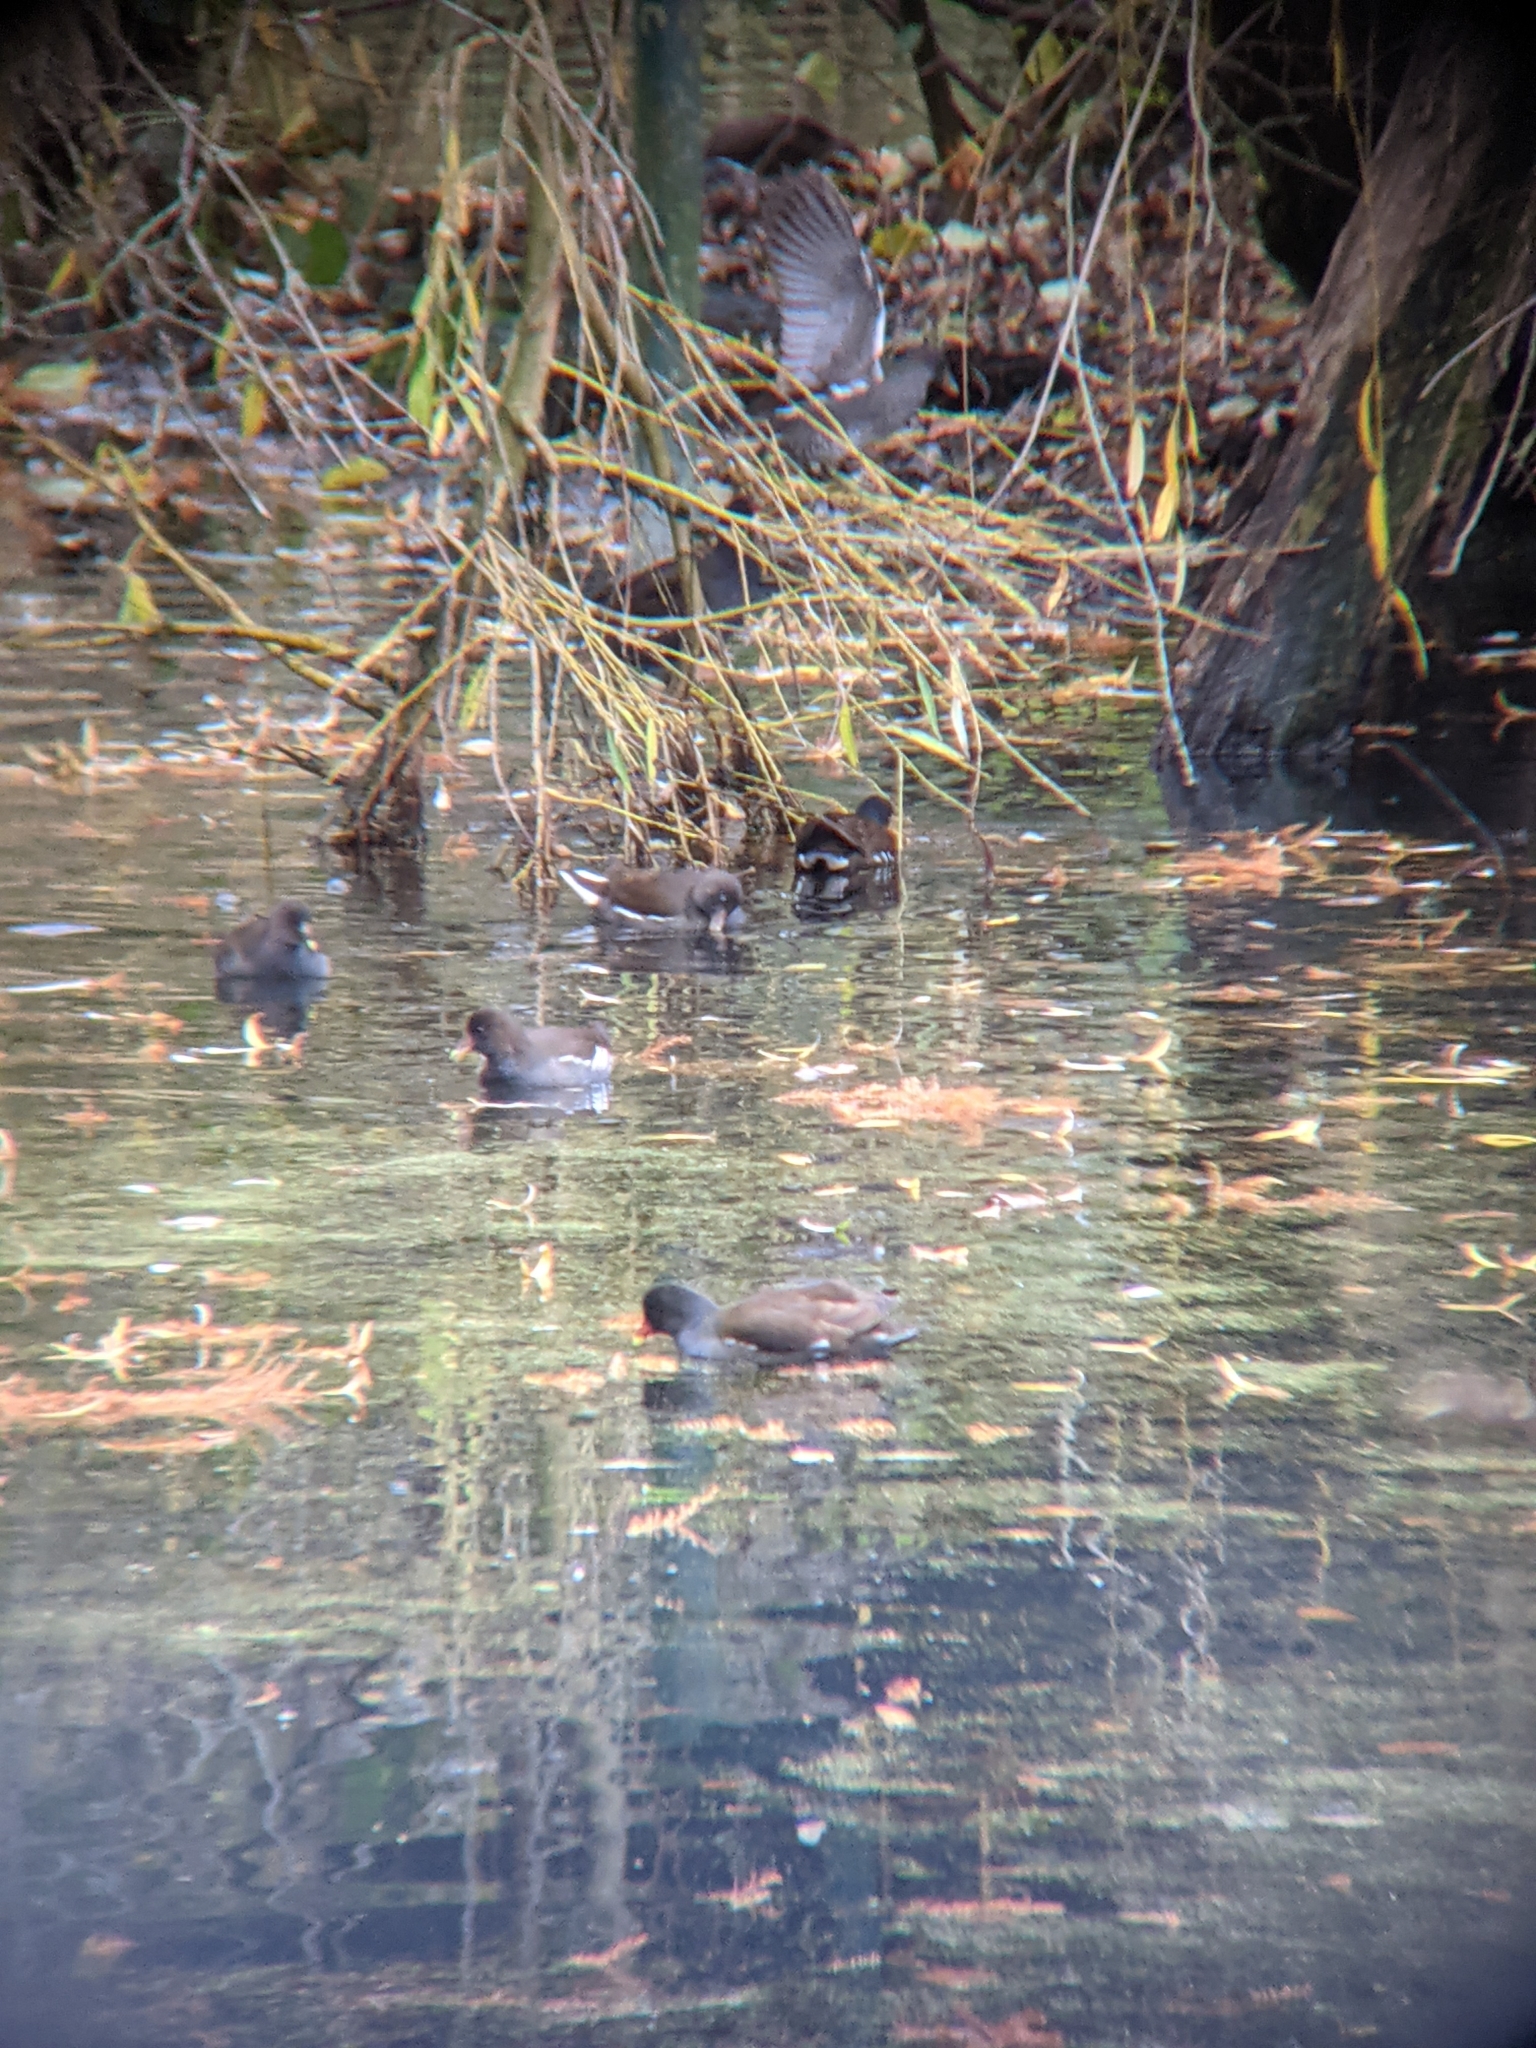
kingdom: Animalia
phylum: Chordata
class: Aves
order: Gruiformes
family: Rallidae
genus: Gallinula
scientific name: Gallinula chloropus
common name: Common moorhen
